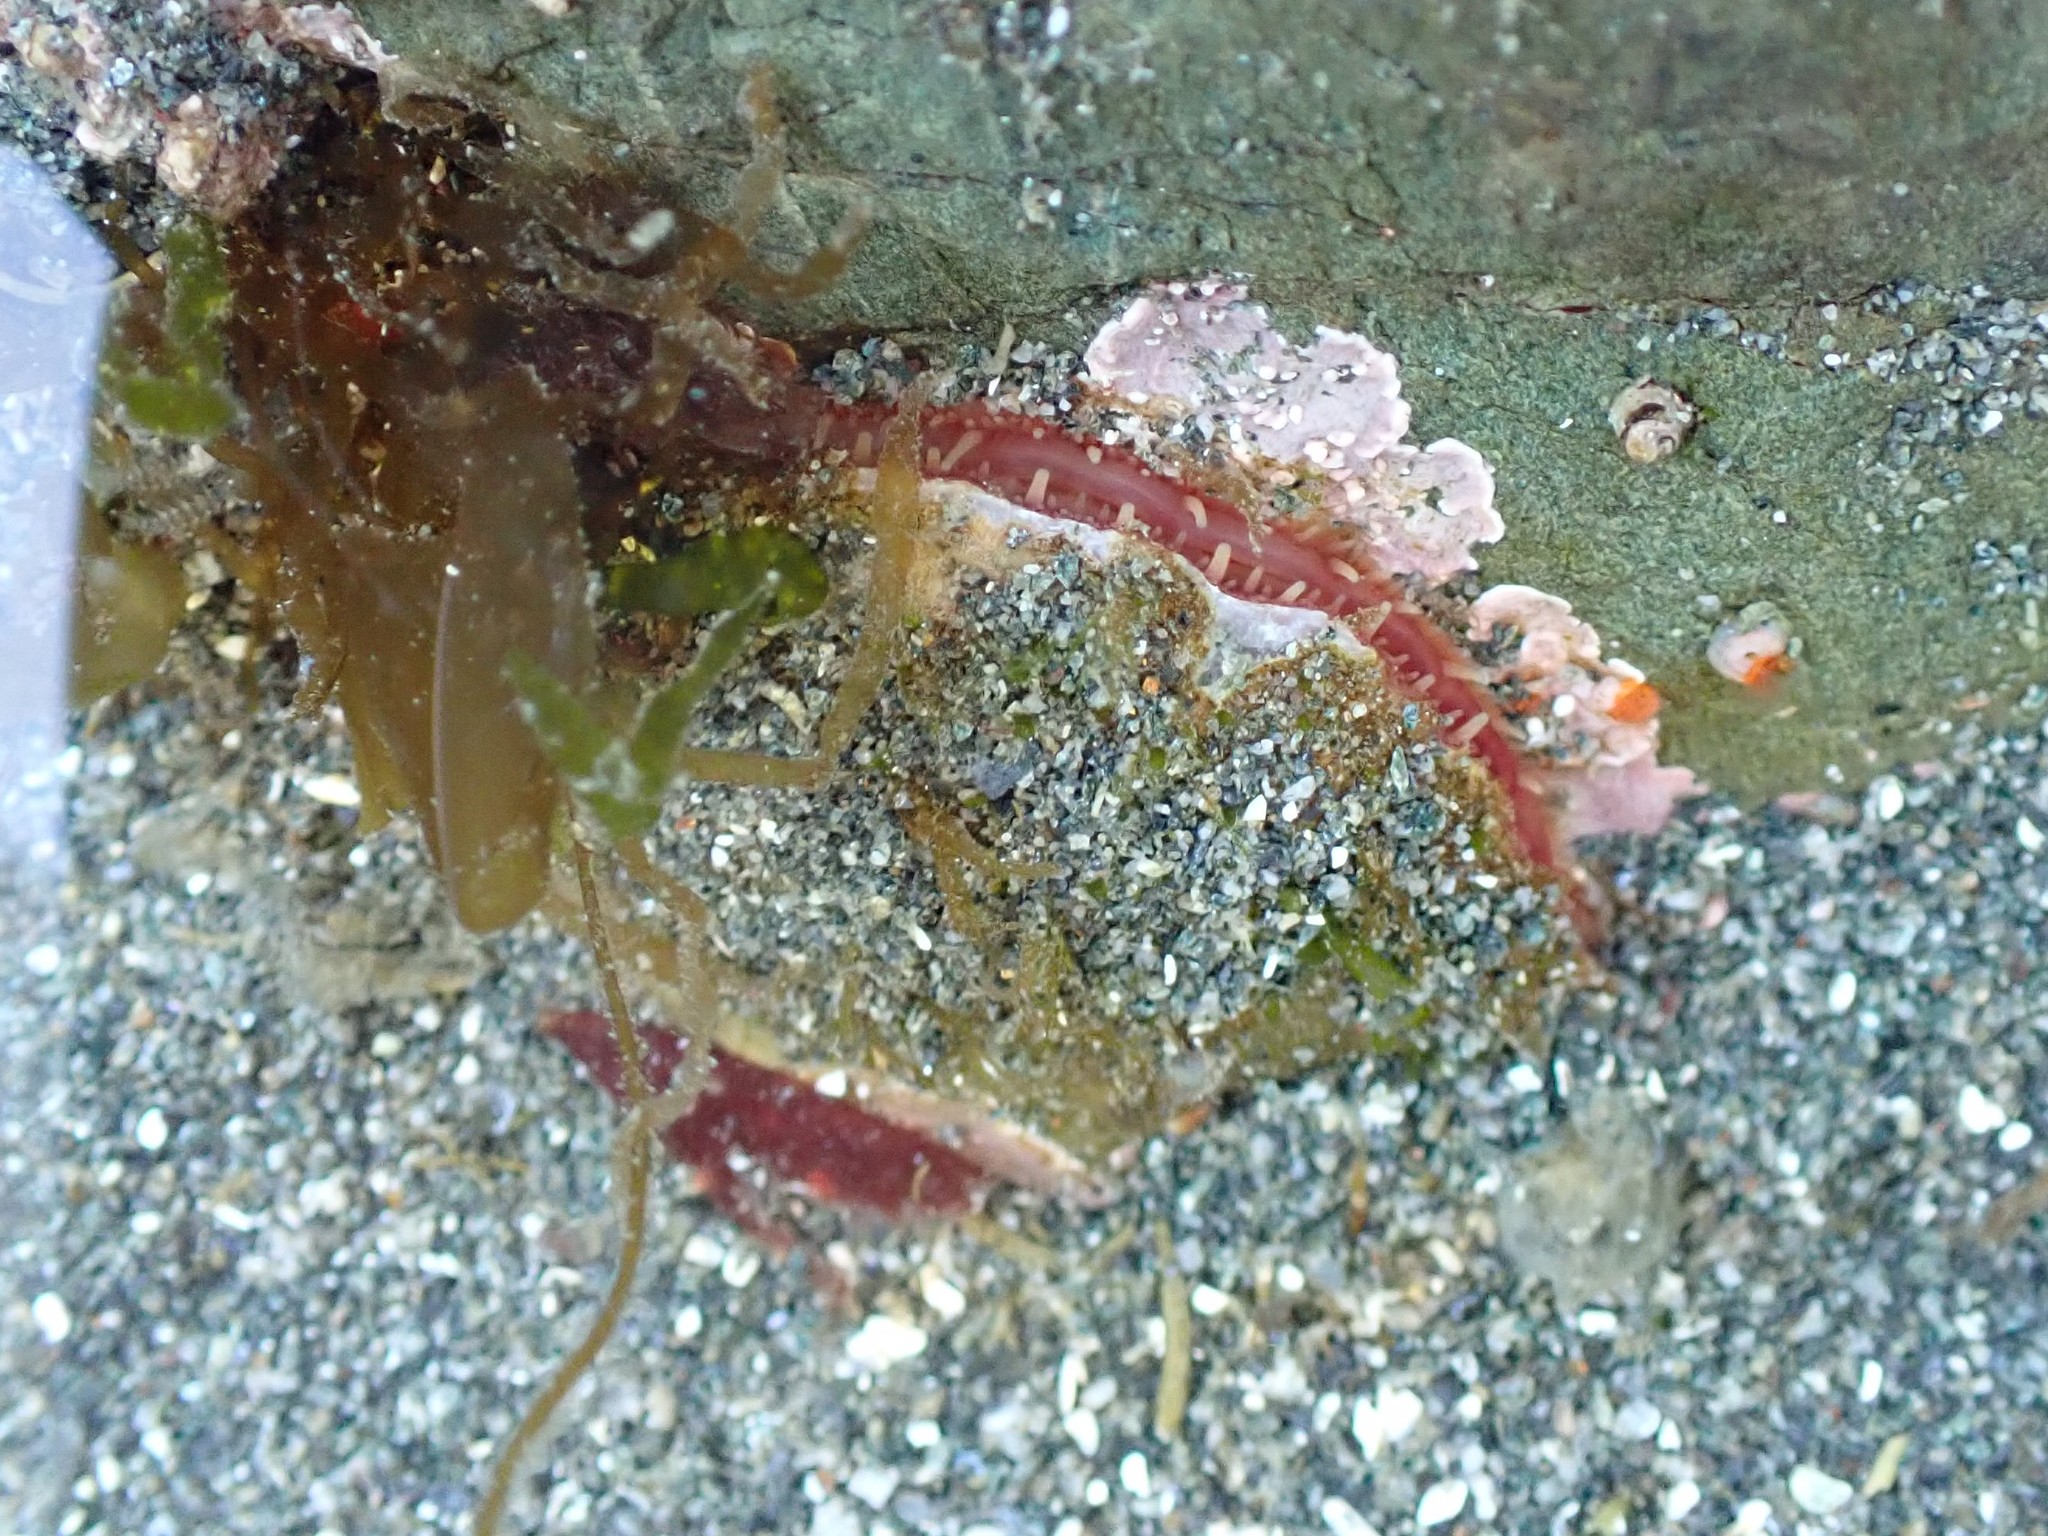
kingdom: Animalia
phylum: Mollusca
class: Bivalvia
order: Pectinida
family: Anomiidae
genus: Pododesmus
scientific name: Pododesmus macrochisma
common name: Alaska jingle
